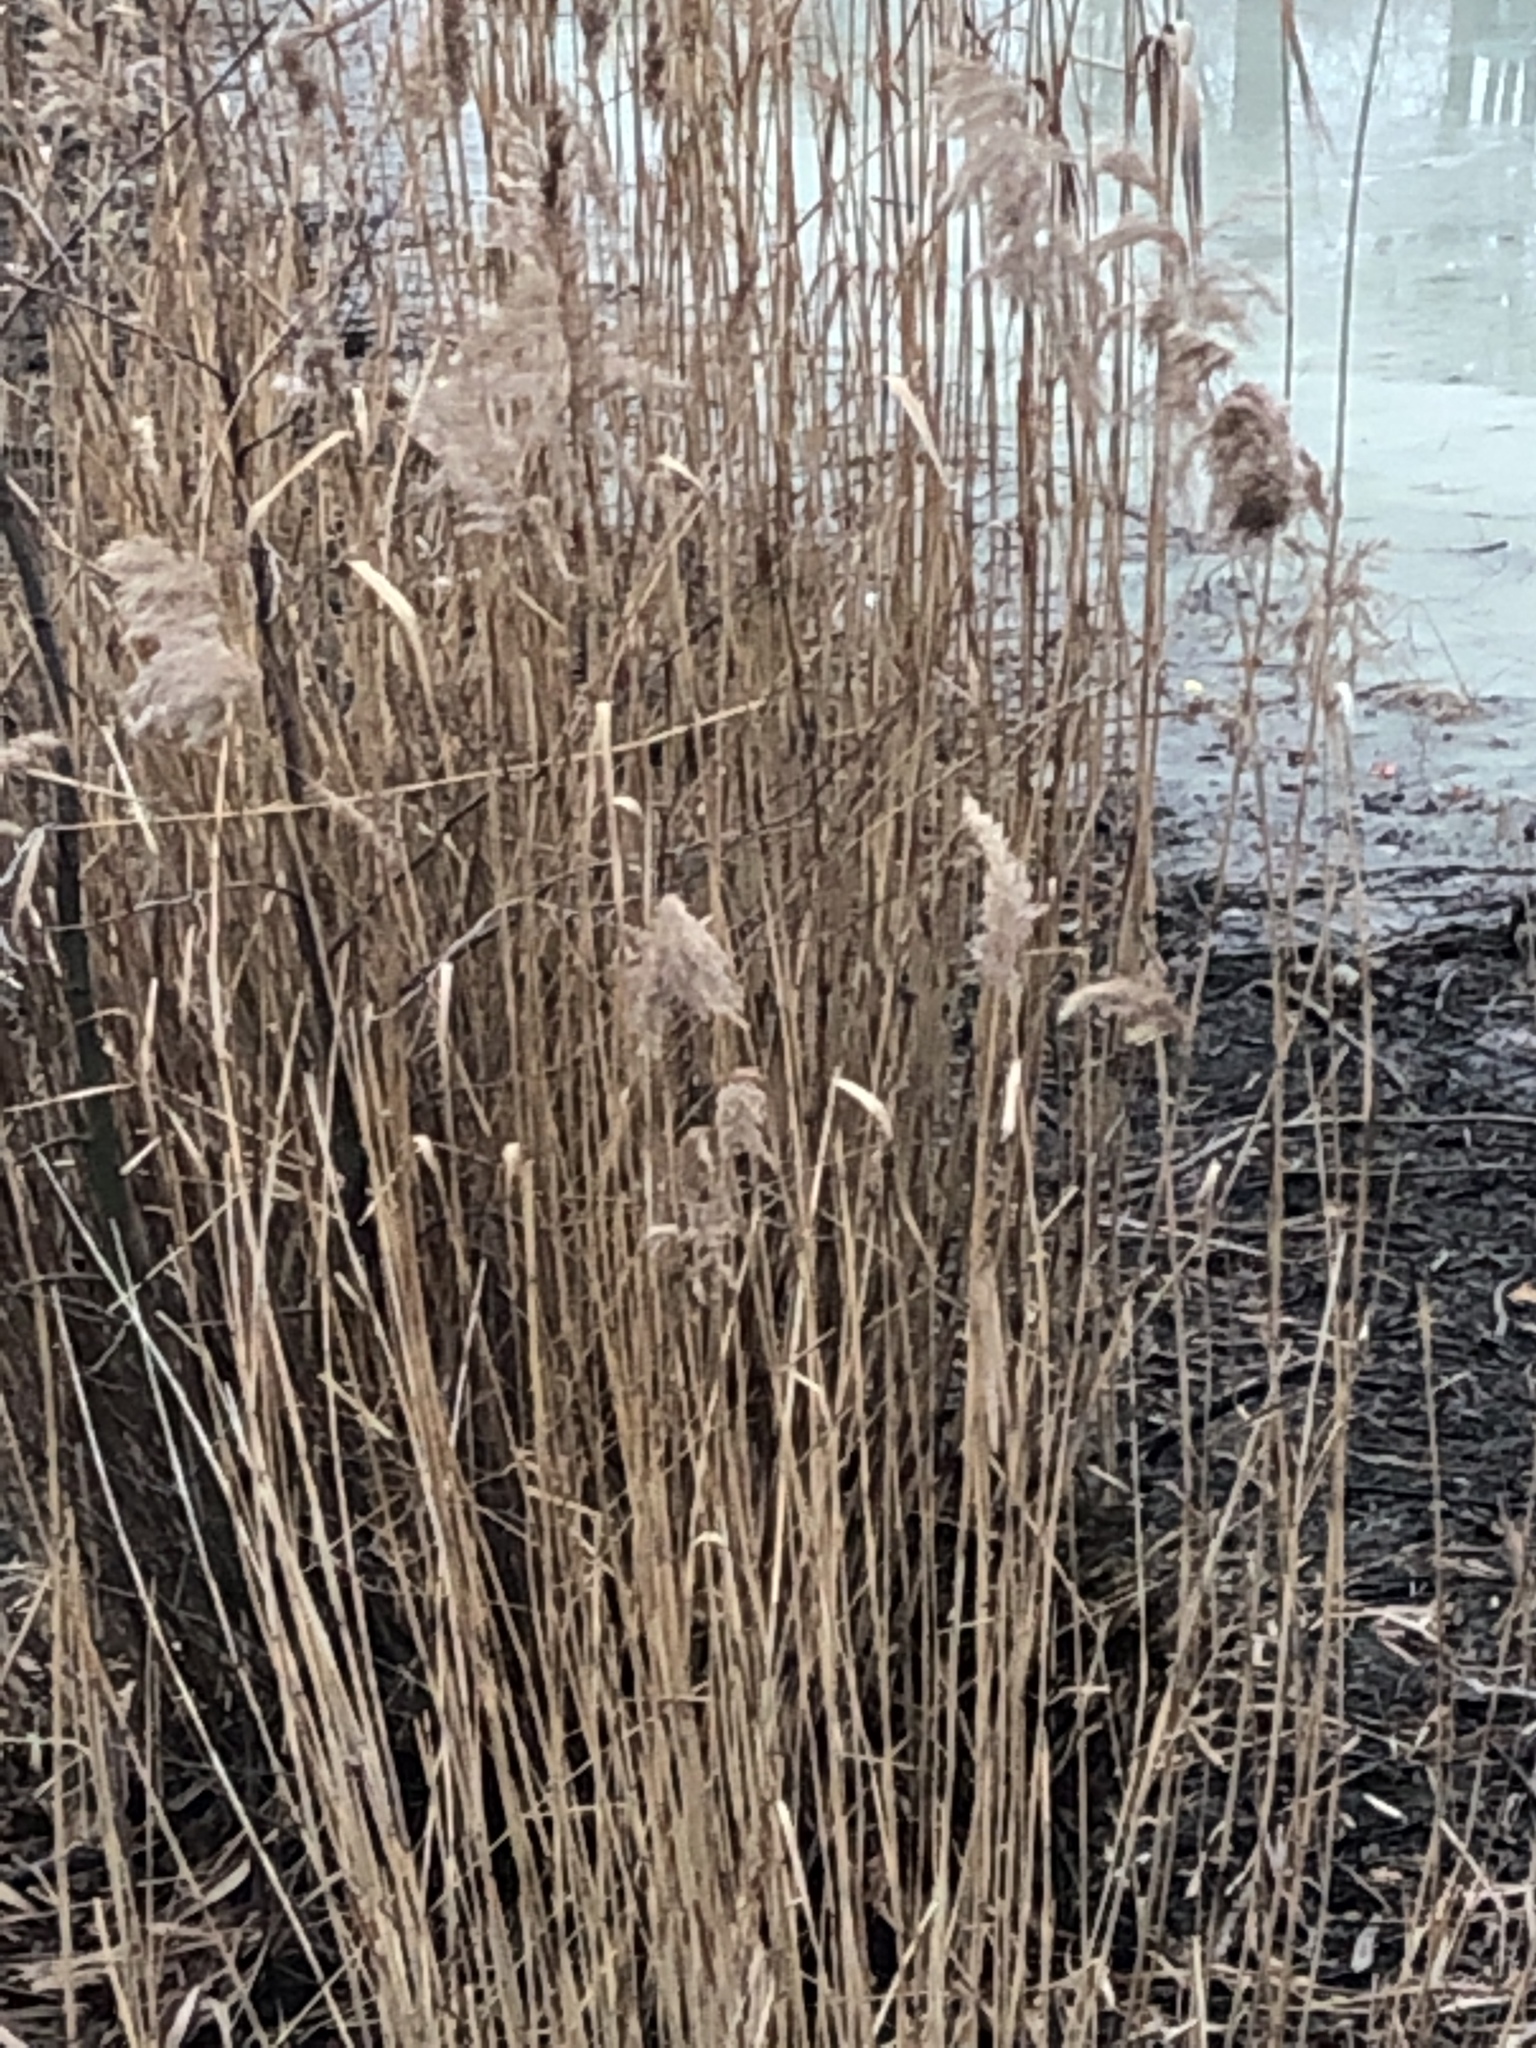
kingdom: Plantae
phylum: Tracheophyta
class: Liliopsida
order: Poales
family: Poaceae
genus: Phragmites
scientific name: Phragmites australis
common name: Common reed
